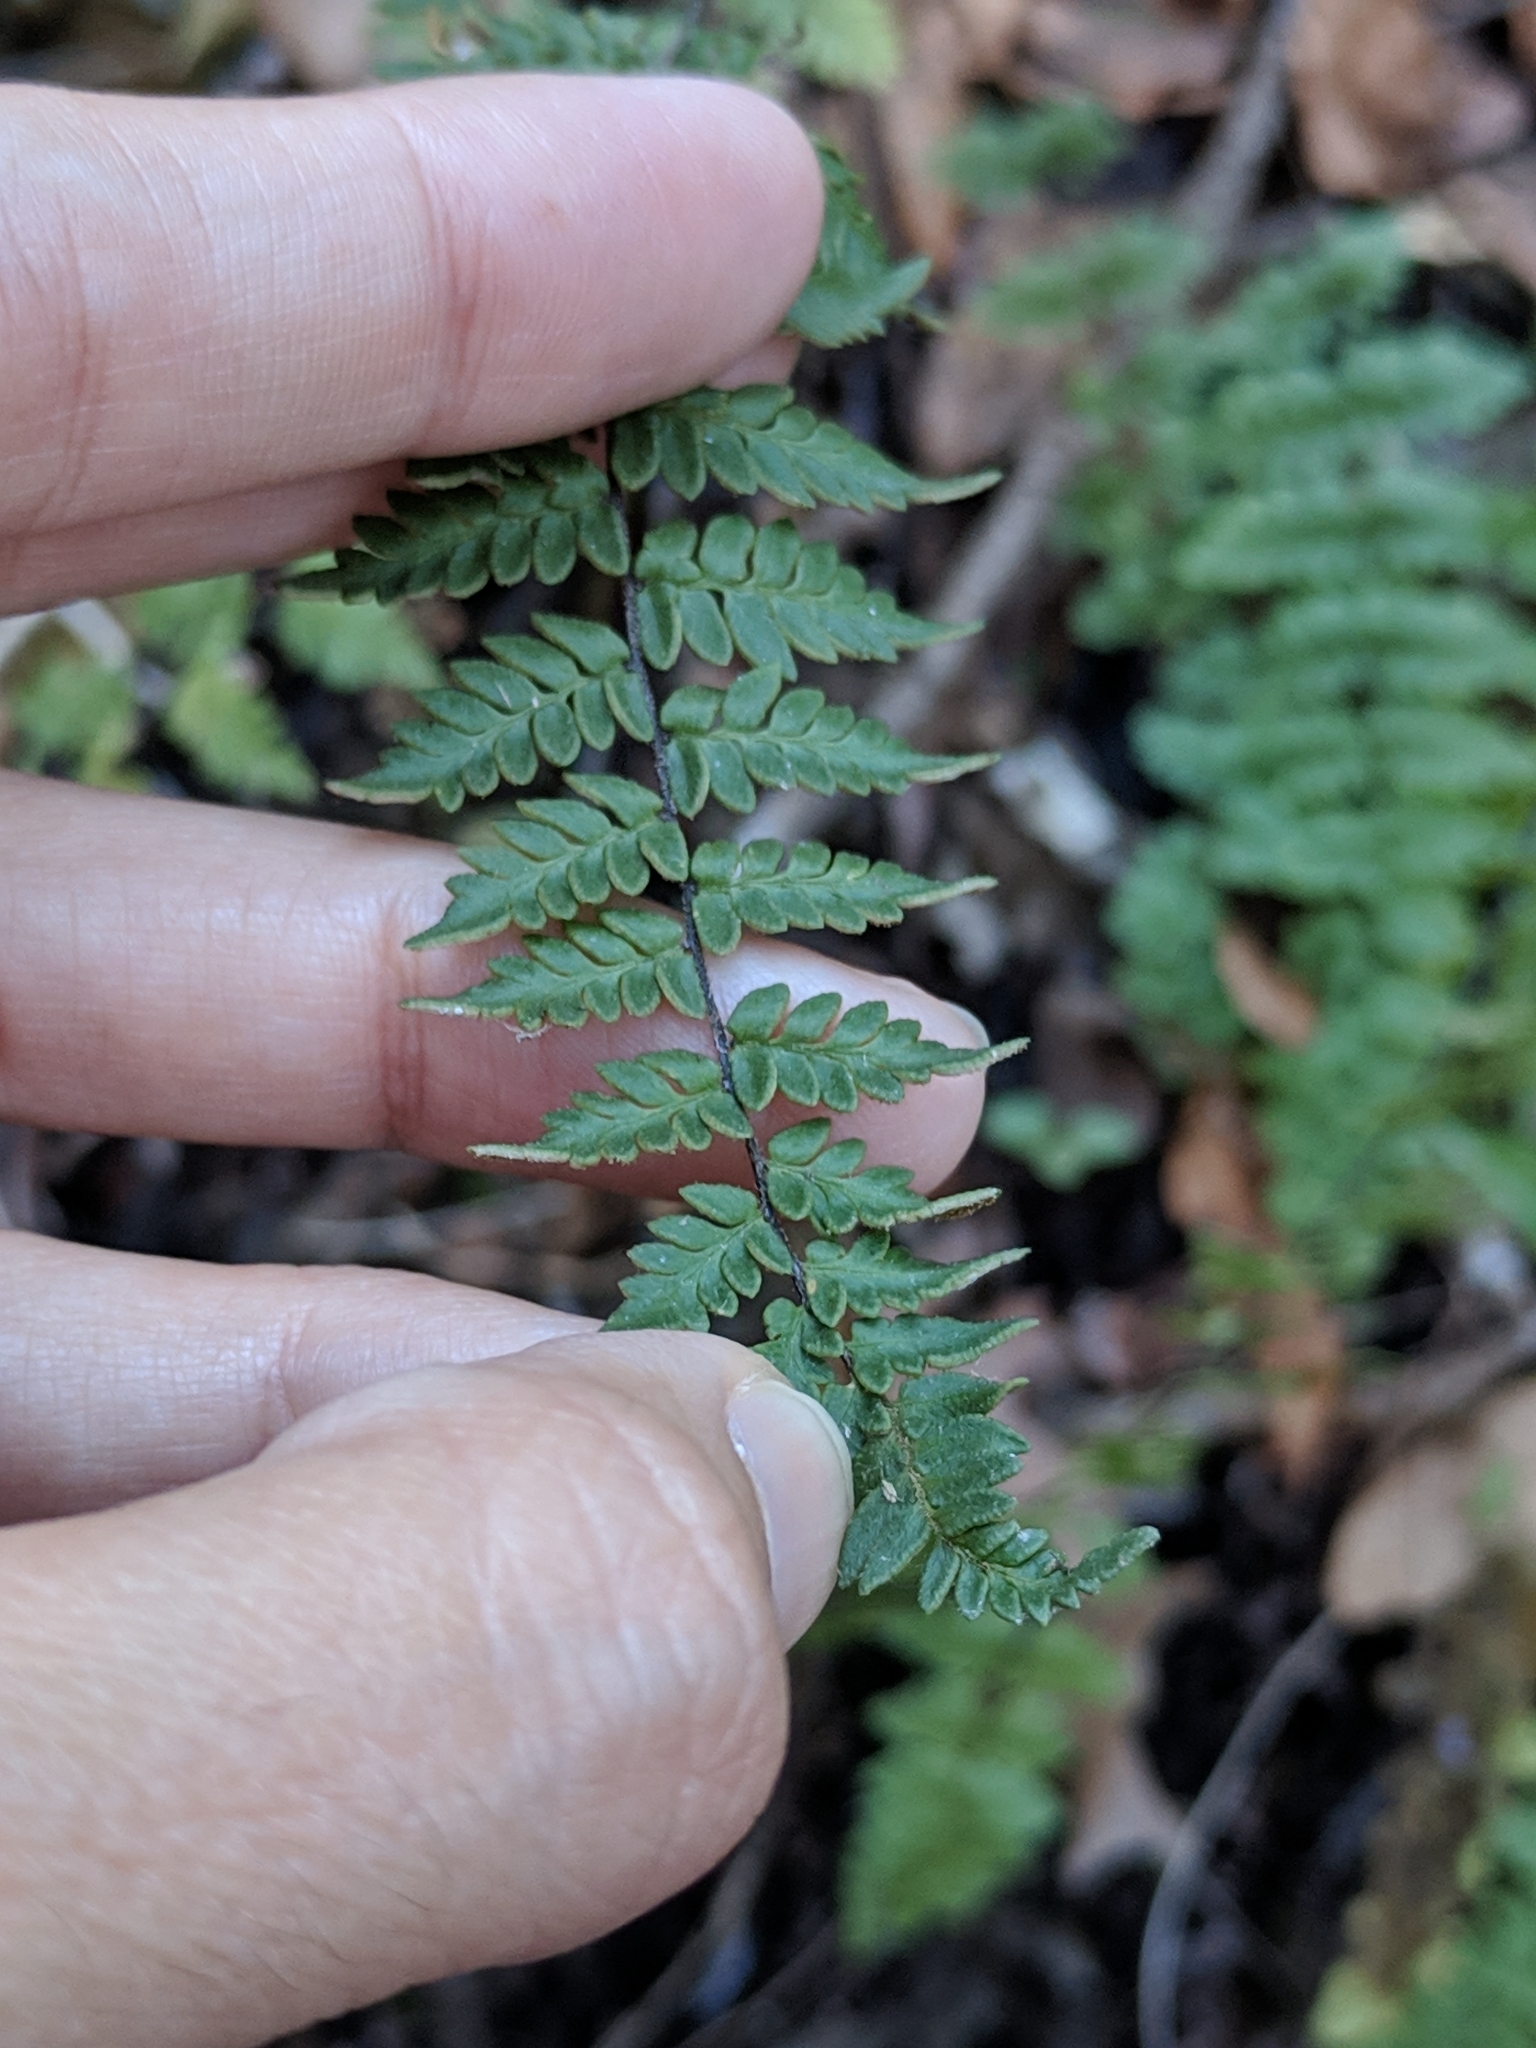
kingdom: Plantae
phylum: Tracheophyta
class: Polypodiopsida
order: Polypodiales
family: Pteridaceae
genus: Myriopteris
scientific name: Myriopteris alabamensis
